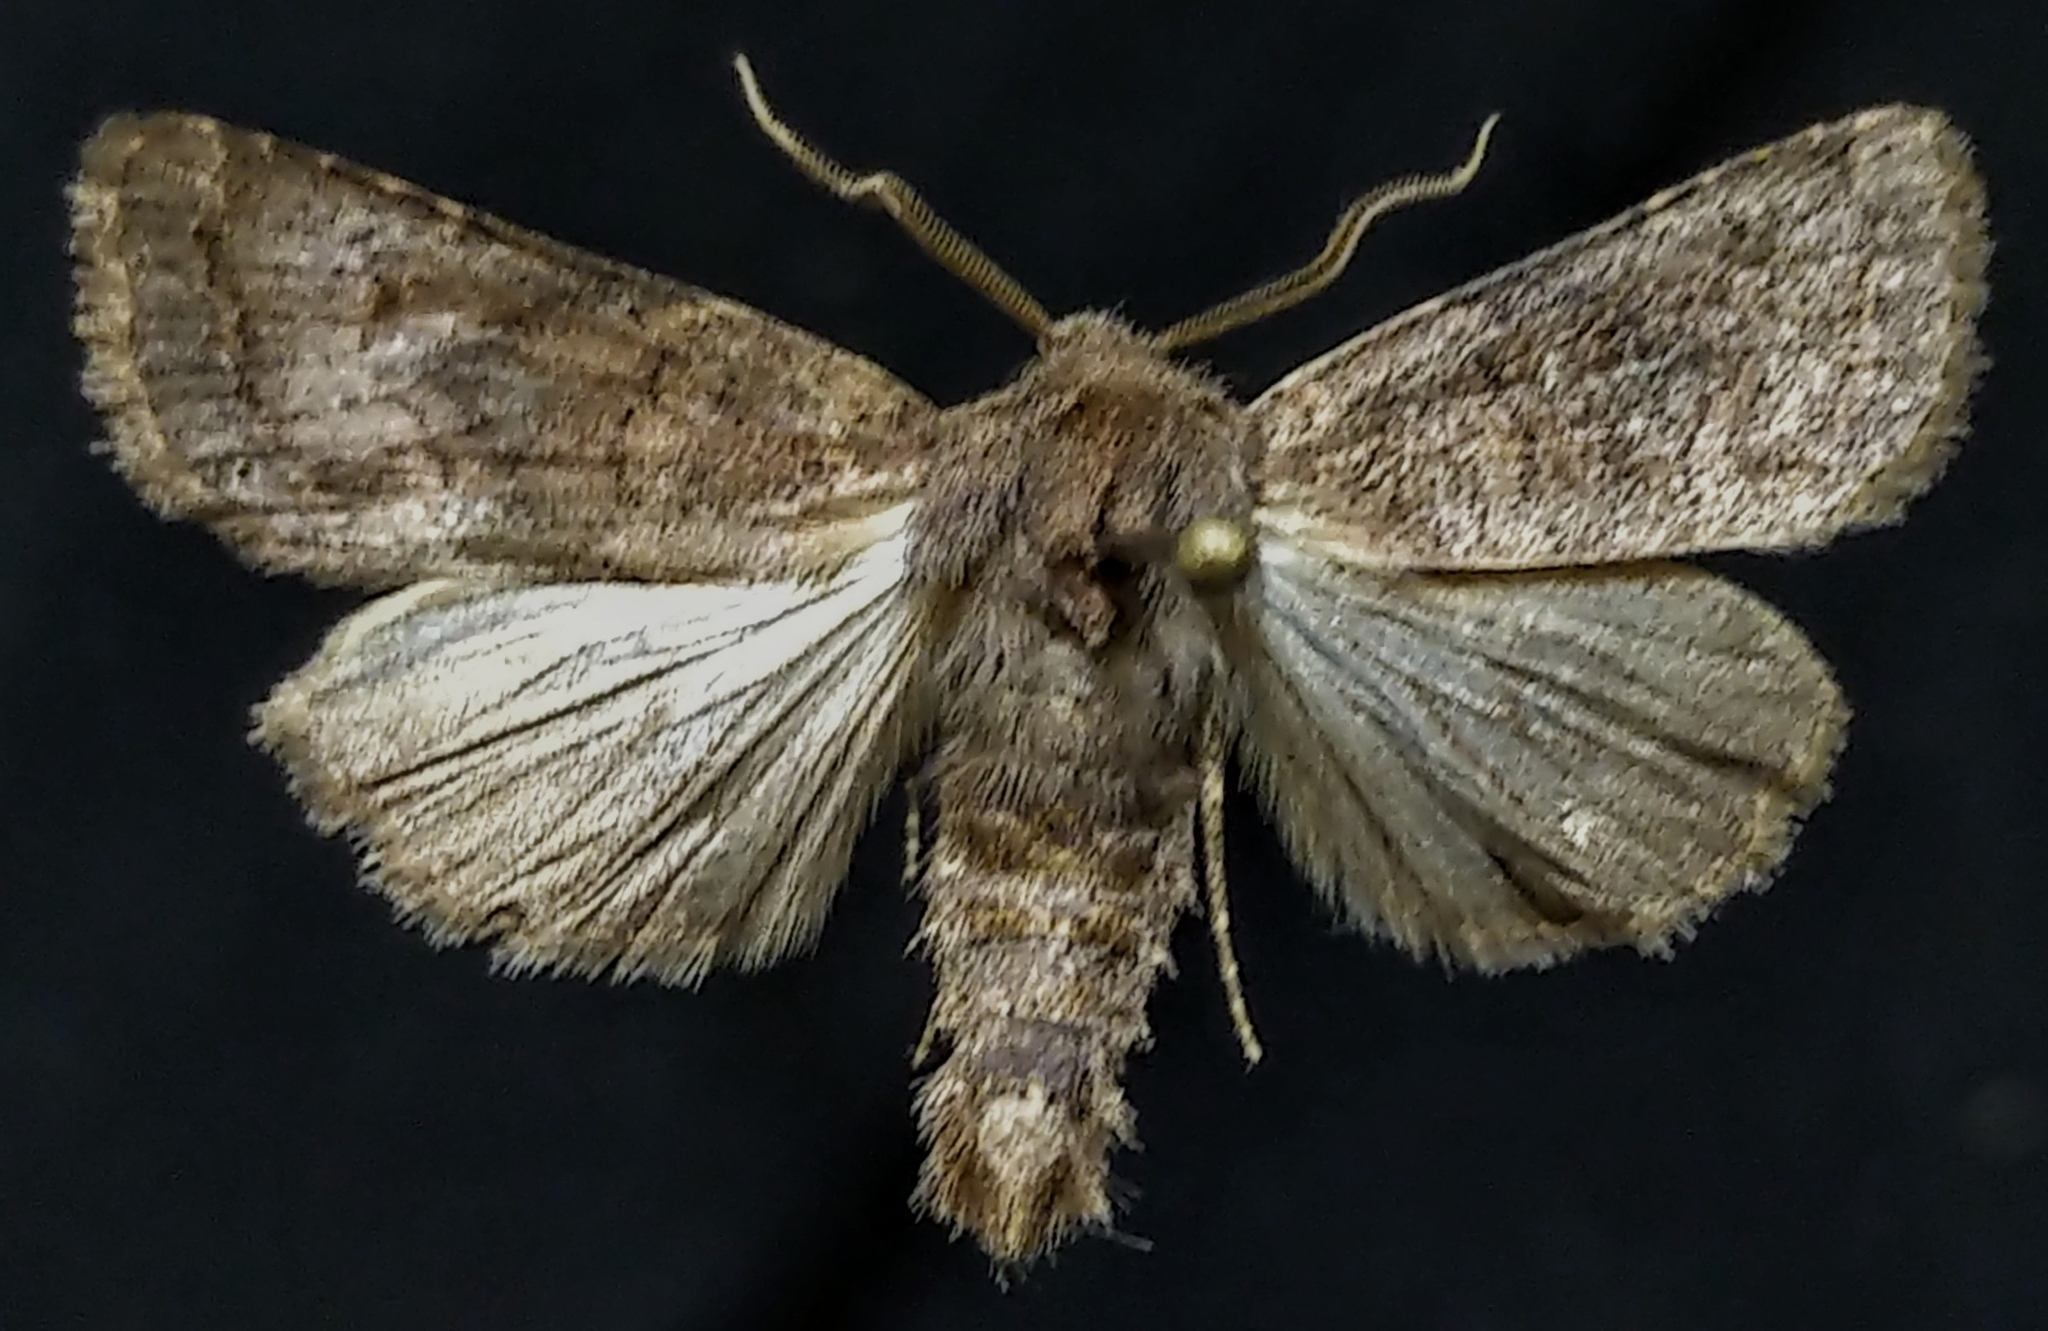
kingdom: Animalia
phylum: Arthropoda
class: Insecta
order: Lepidoptera
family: Noctuidae
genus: Trichopolia
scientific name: Trichopolia
